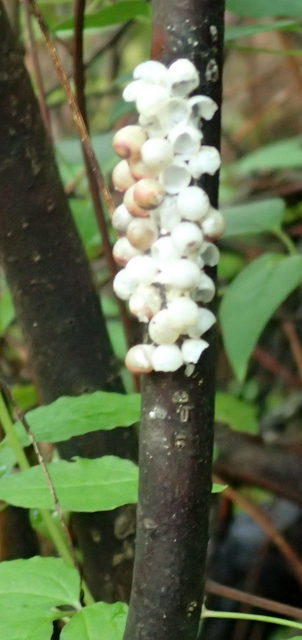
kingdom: Animalia
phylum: Mollusca
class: Gastropoda
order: Architaenioglossa
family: Ampullariidae
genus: Pomacea
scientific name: Pomacea paludosa
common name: Florida applesnail
